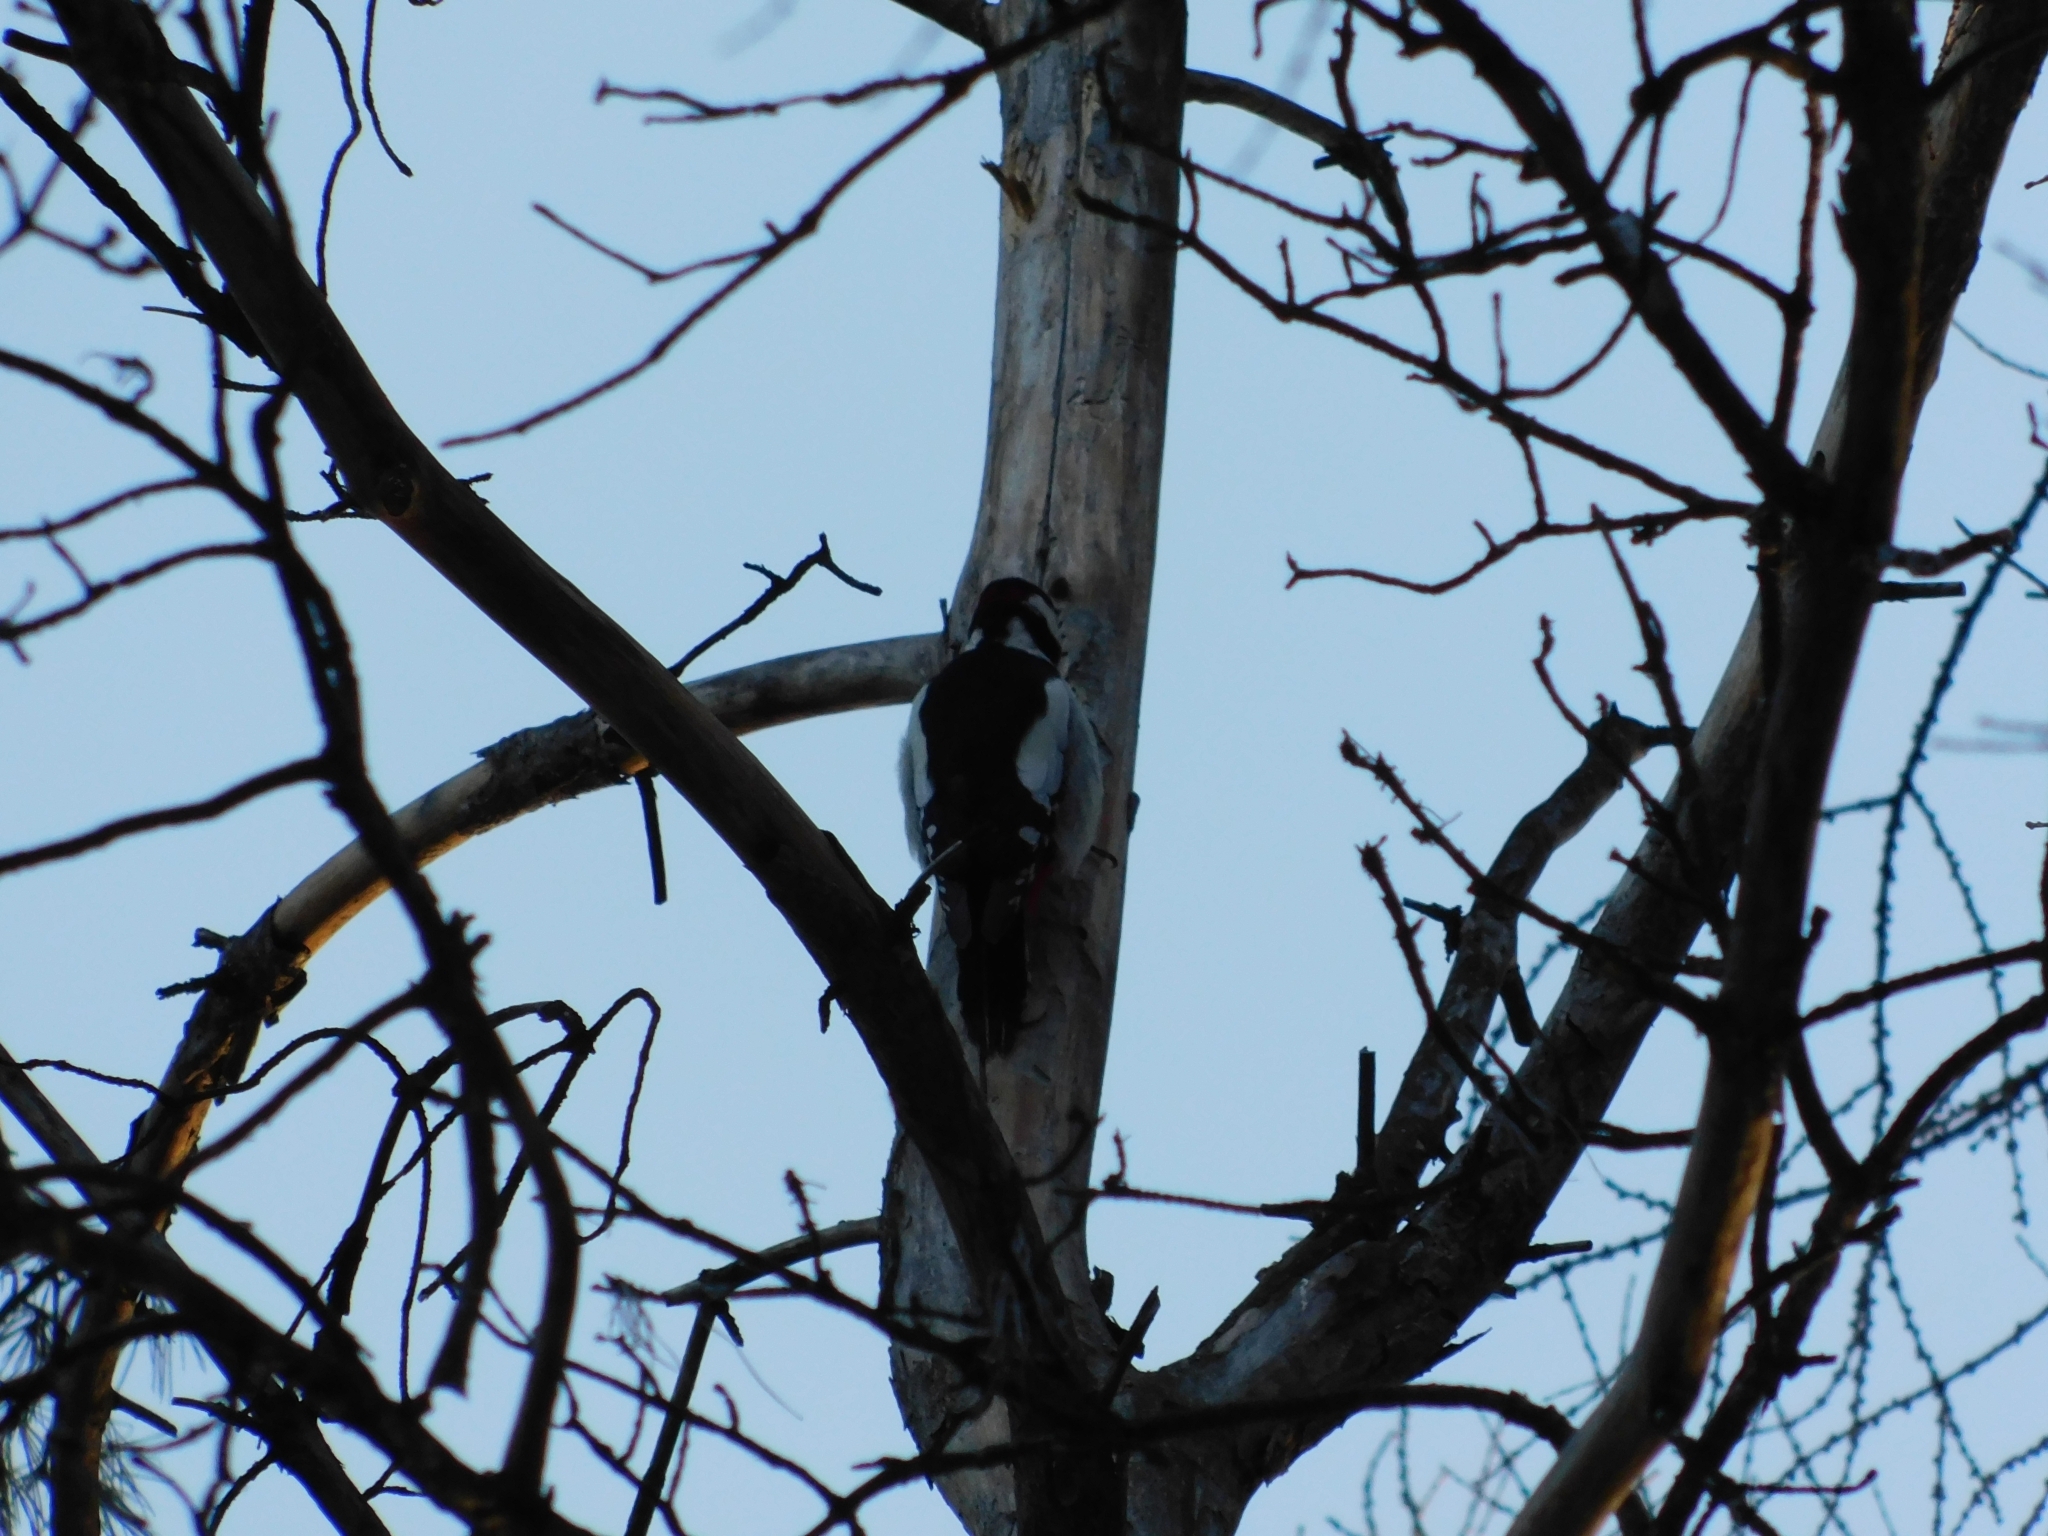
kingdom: Animalia
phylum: Chordata
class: Aves
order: Piciformes
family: Picidae
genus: Dendrocopos
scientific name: Dendrocopos major
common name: Great spotted woodpecker
